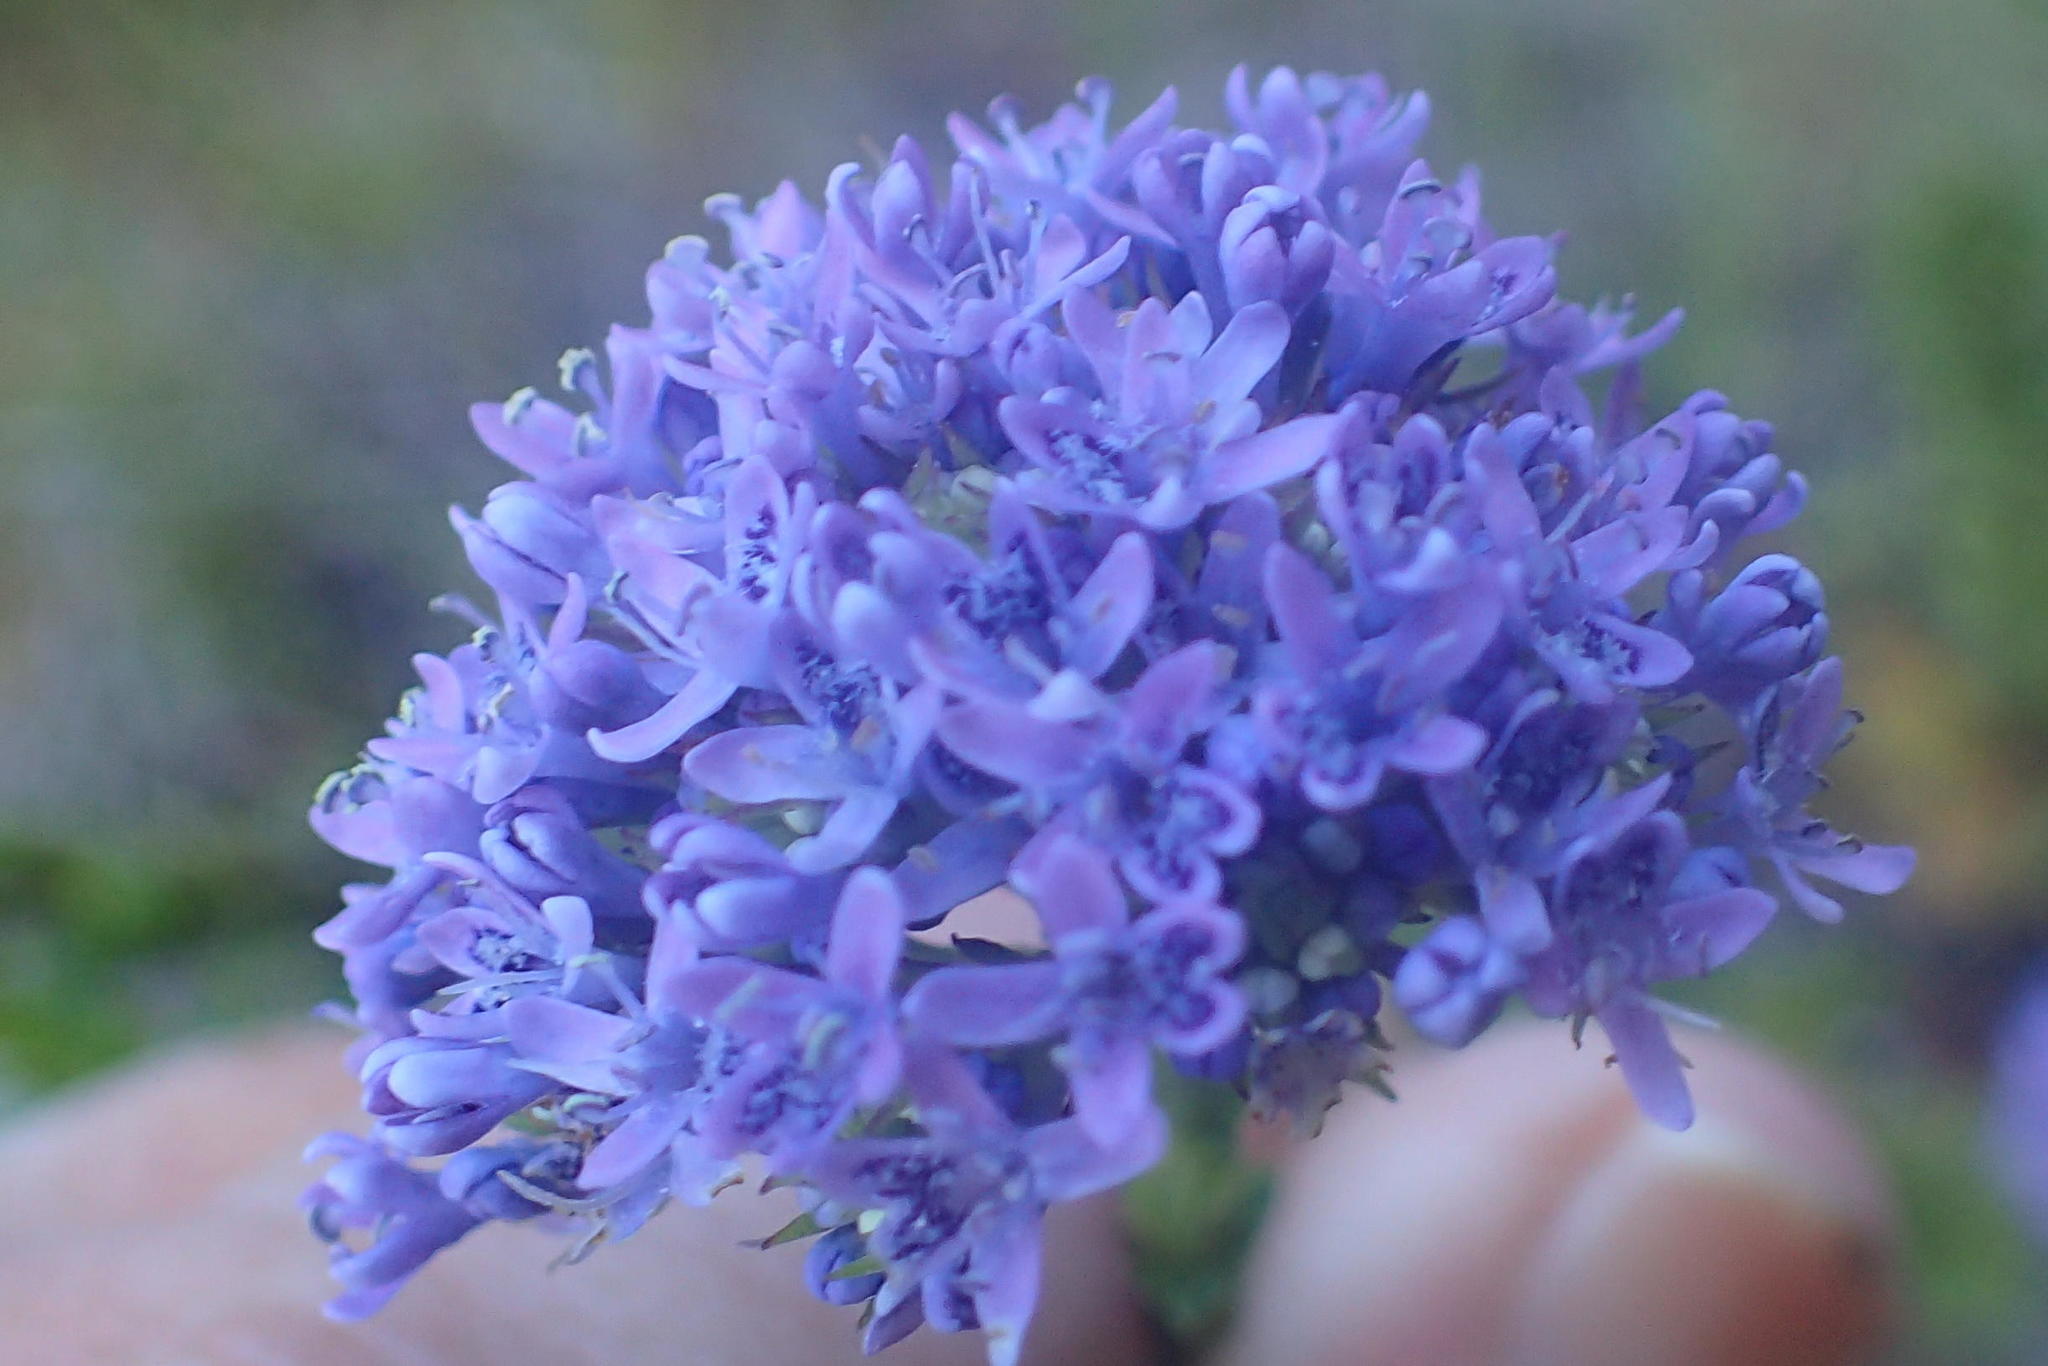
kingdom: Plantae
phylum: Tracheophyta
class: Magnoliopsida
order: Lamiales
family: Scrophulariaceae
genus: Pseudoselago
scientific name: Pseudoselago langebergensis
